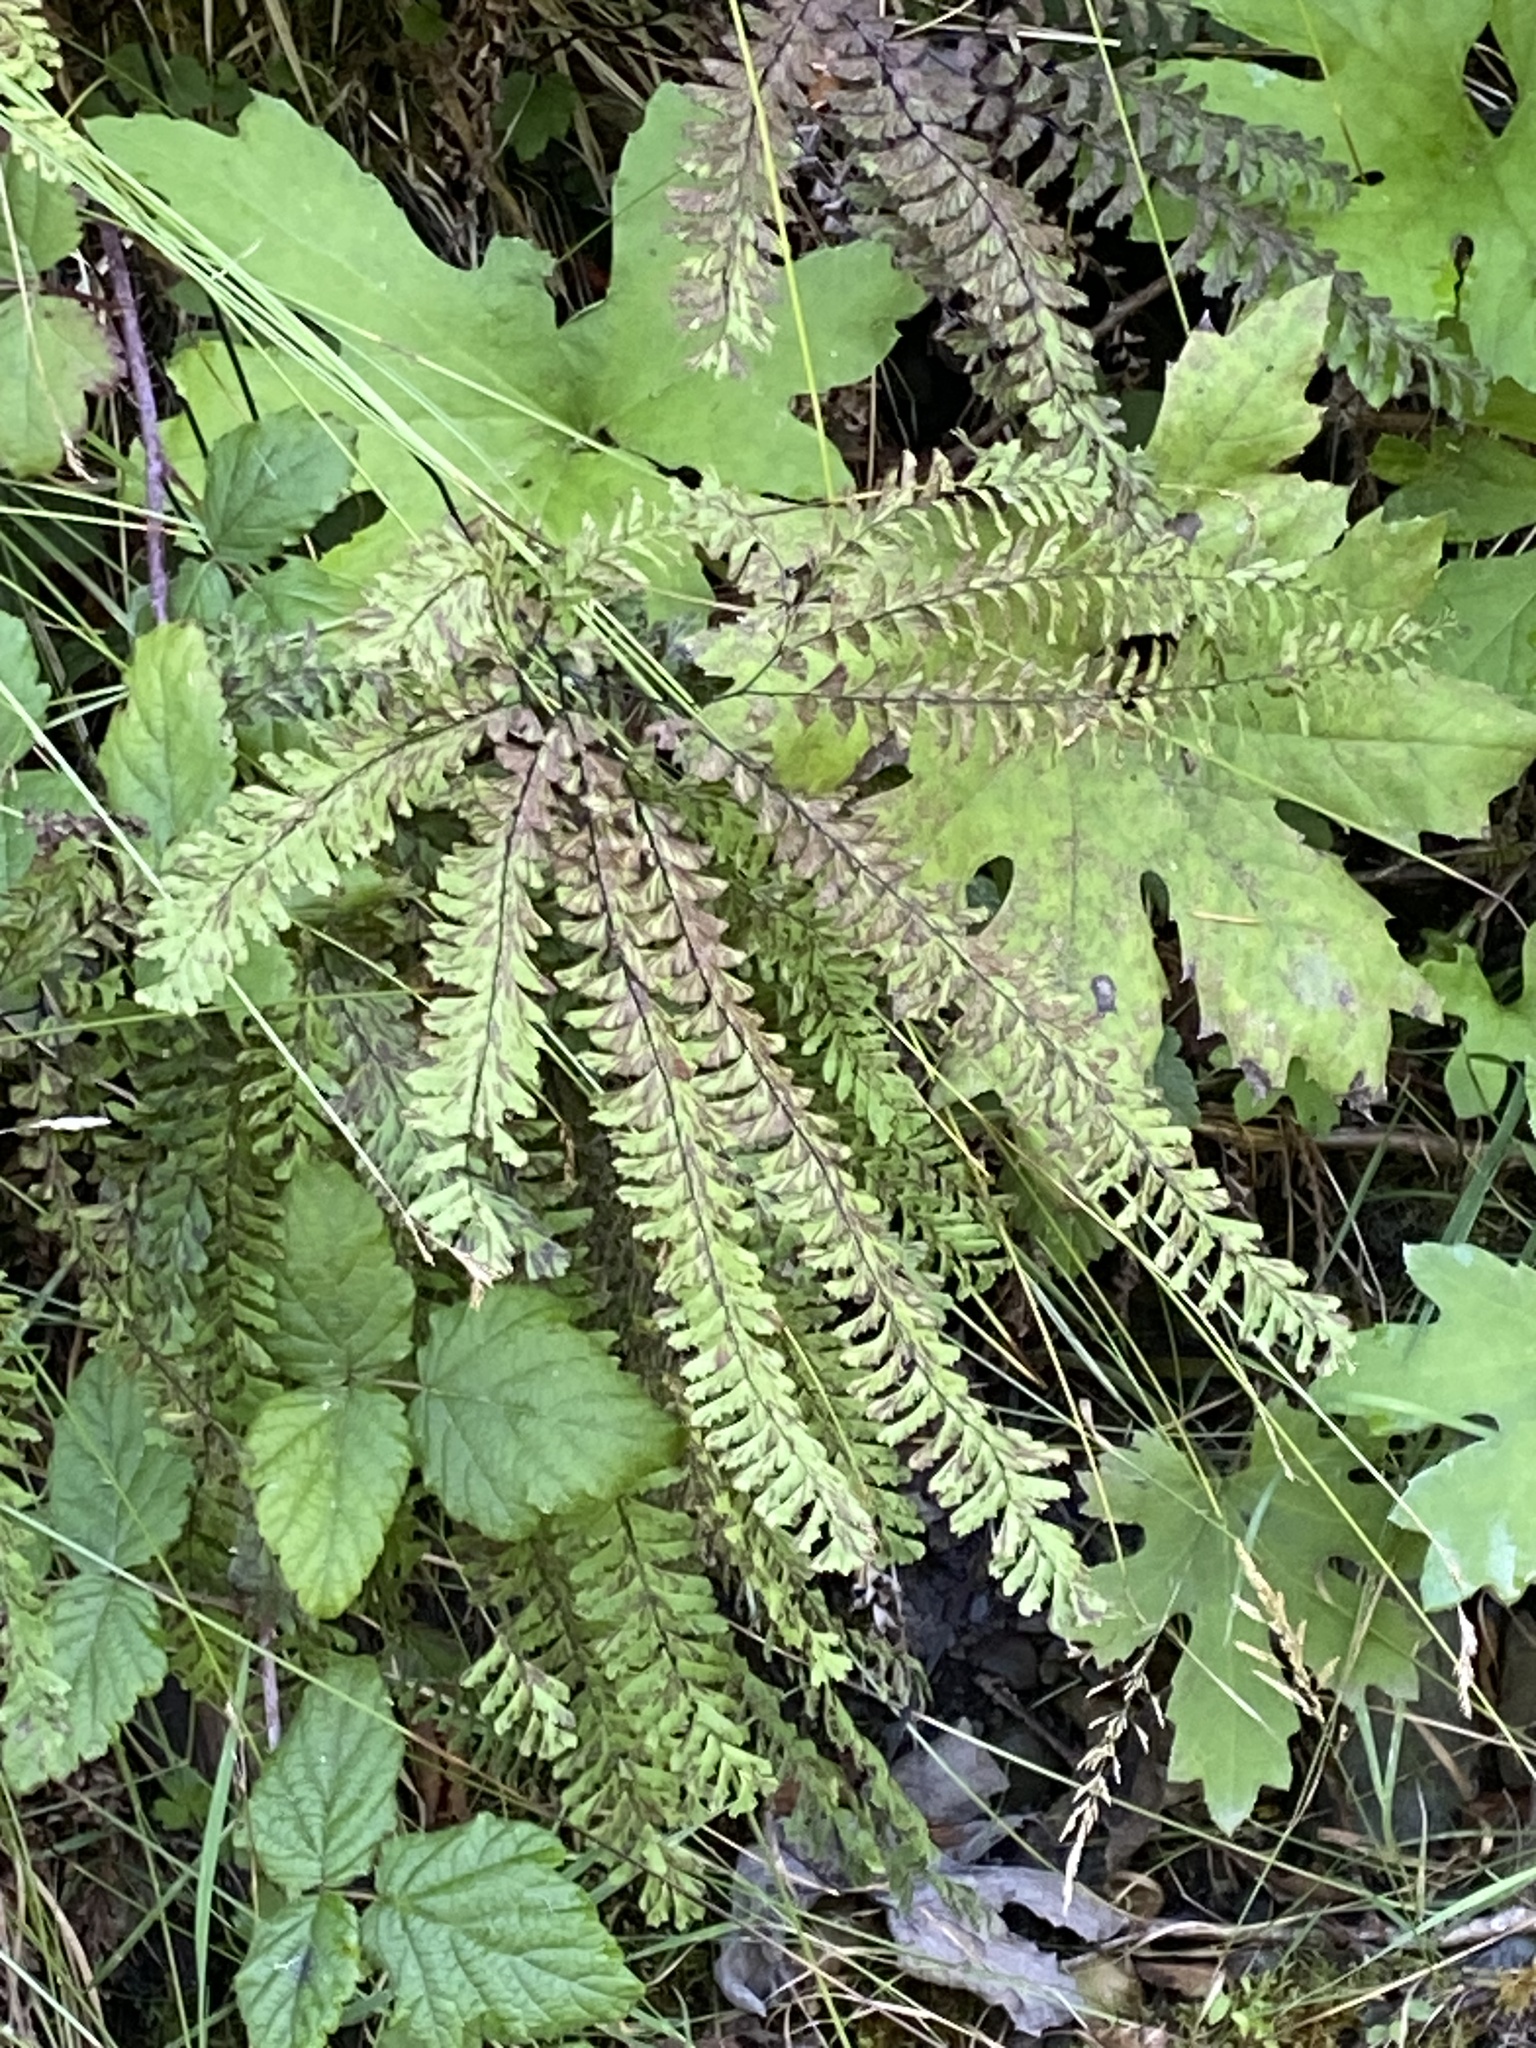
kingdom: Plantae
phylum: Tracheophyta
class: Polypodiopsida
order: Polypodiales
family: Pteridaceae
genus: Adiantum
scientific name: Adiantum aleuticum
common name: Aleutian maidenhair fern
